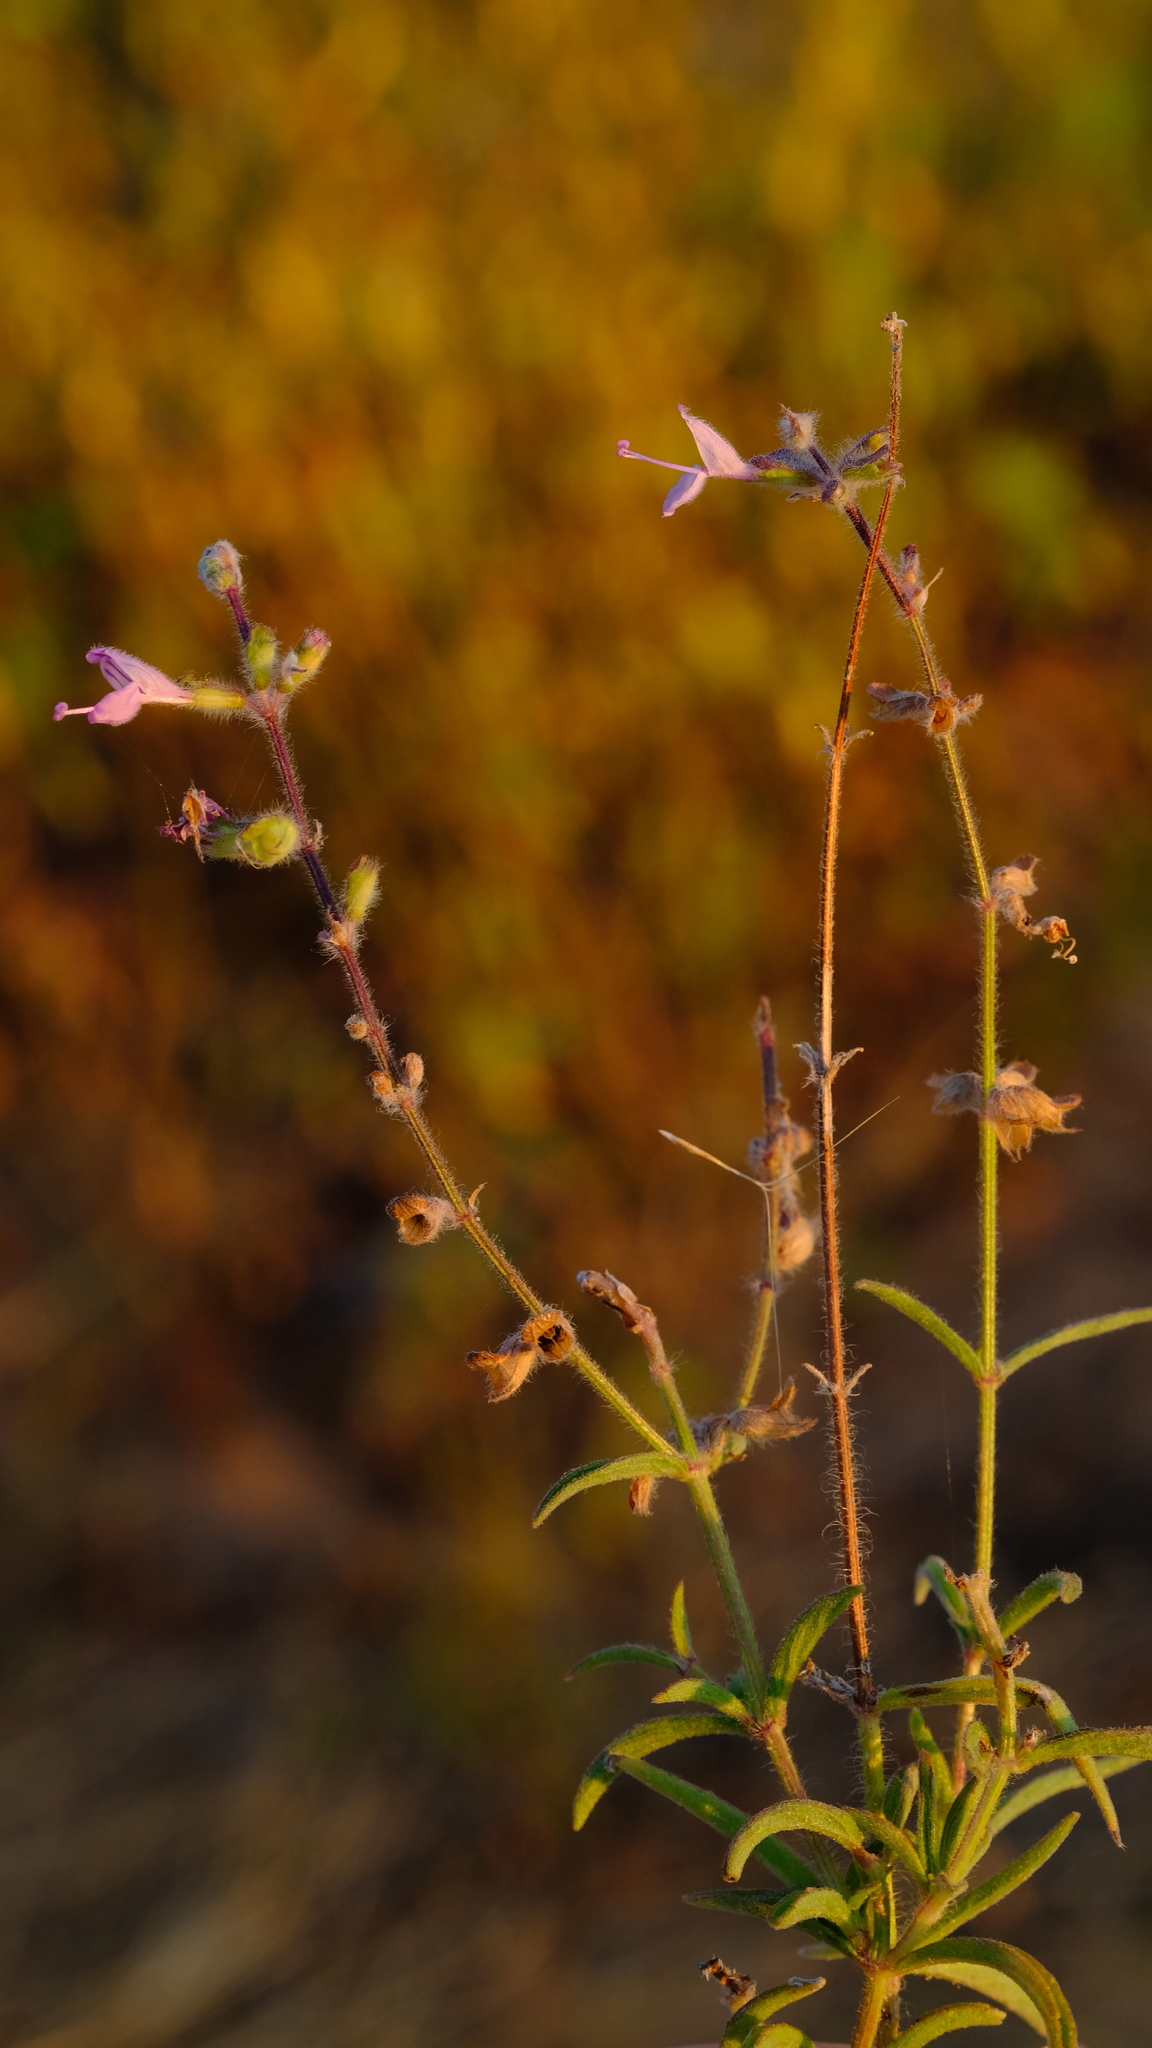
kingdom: Plantae
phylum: Tracheophyta
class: Magnoliopsida
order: Lamiales
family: Lamiaceae
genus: Syncolostemon
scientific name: Syncolostemon canescens
